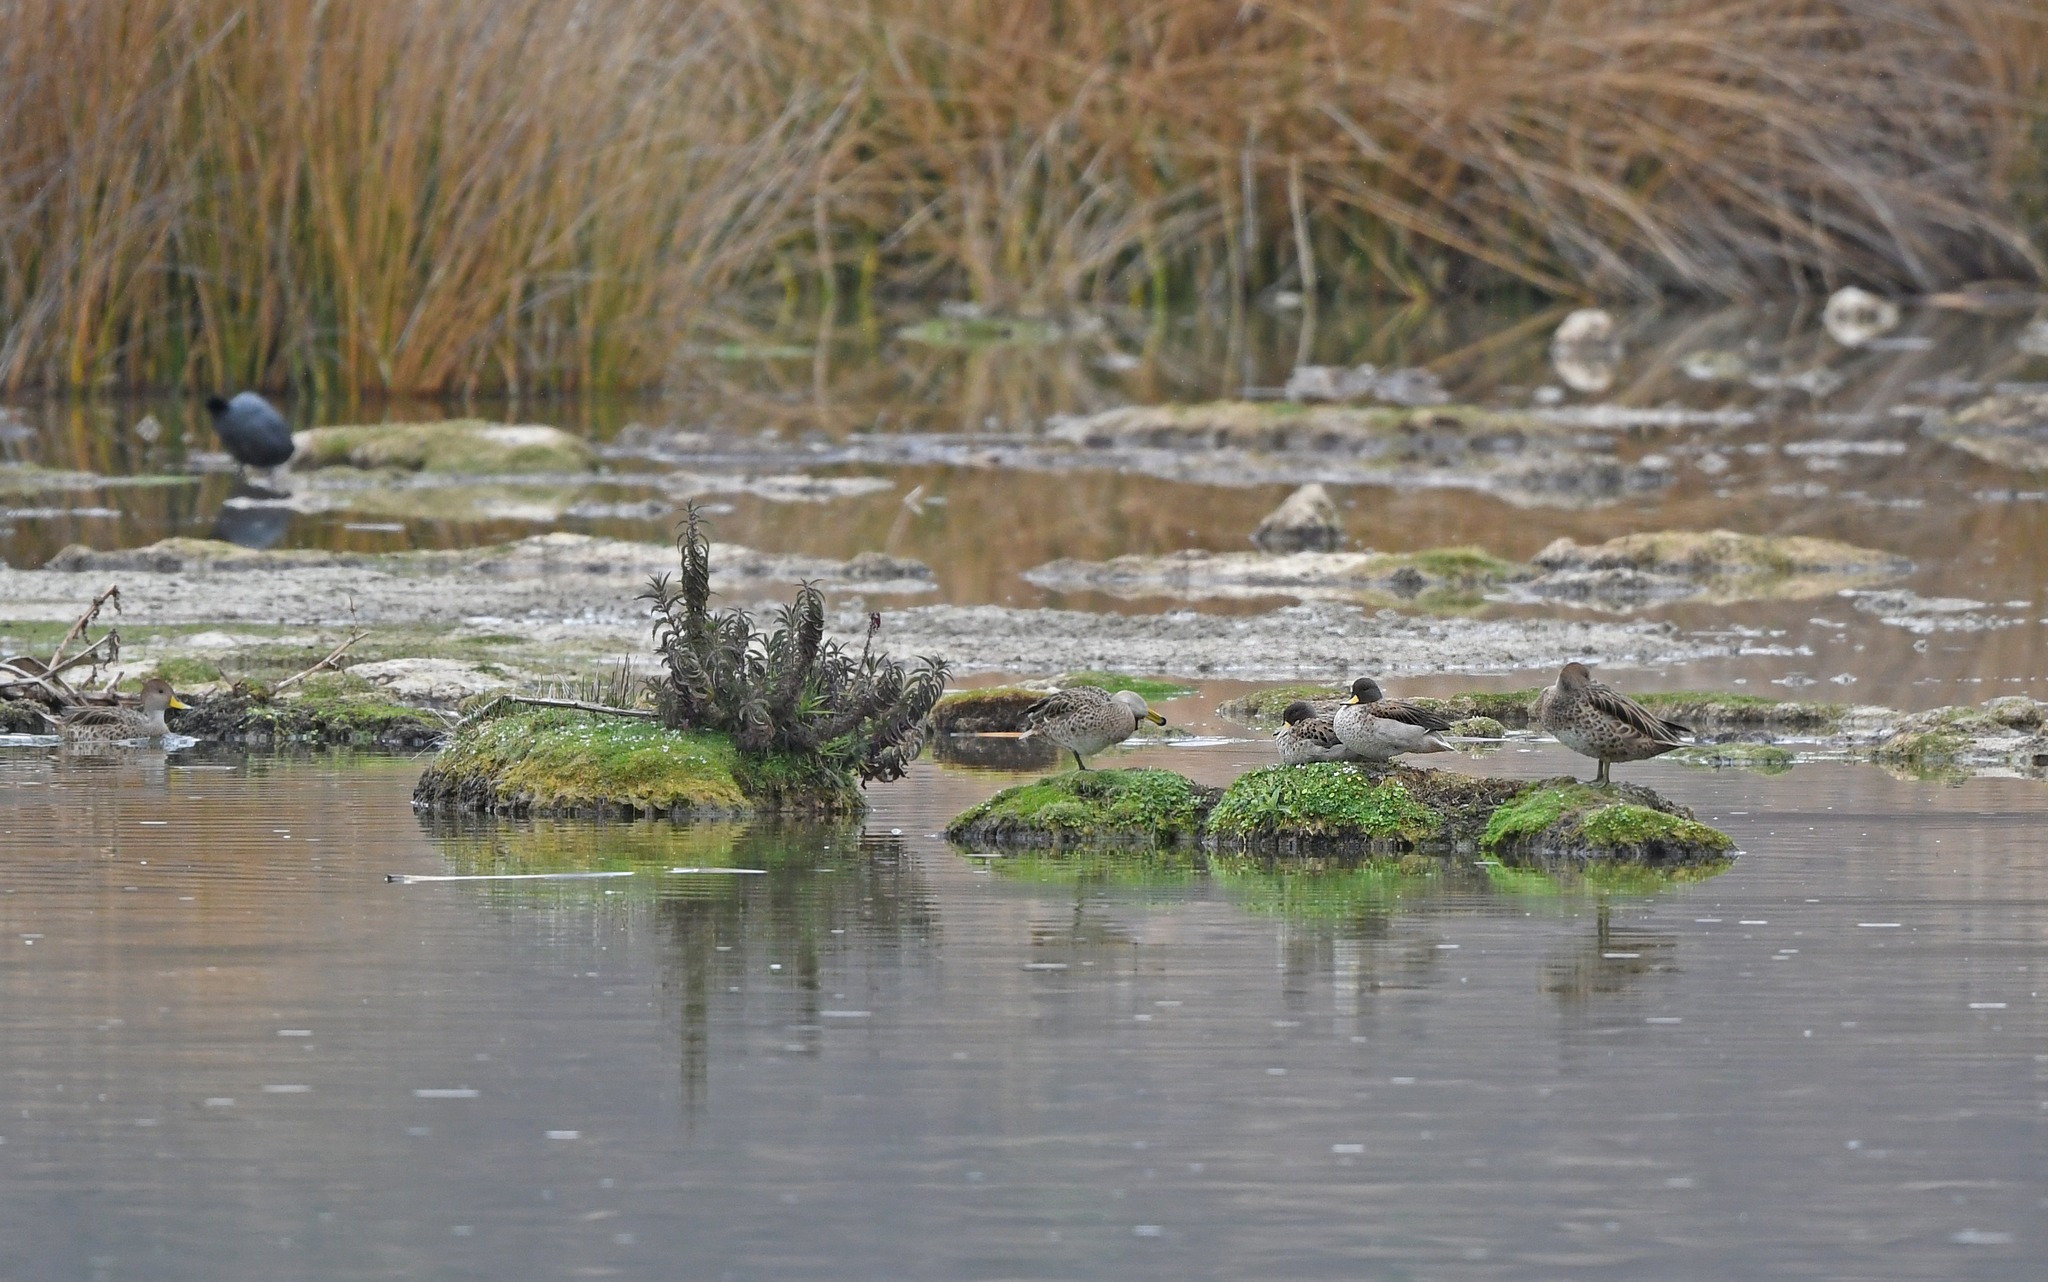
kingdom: Animalia
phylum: Chordata
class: Aves
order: Anseriformes
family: Anatidae
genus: Anas
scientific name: Anas flavirostris
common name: Yellow-billed teal
